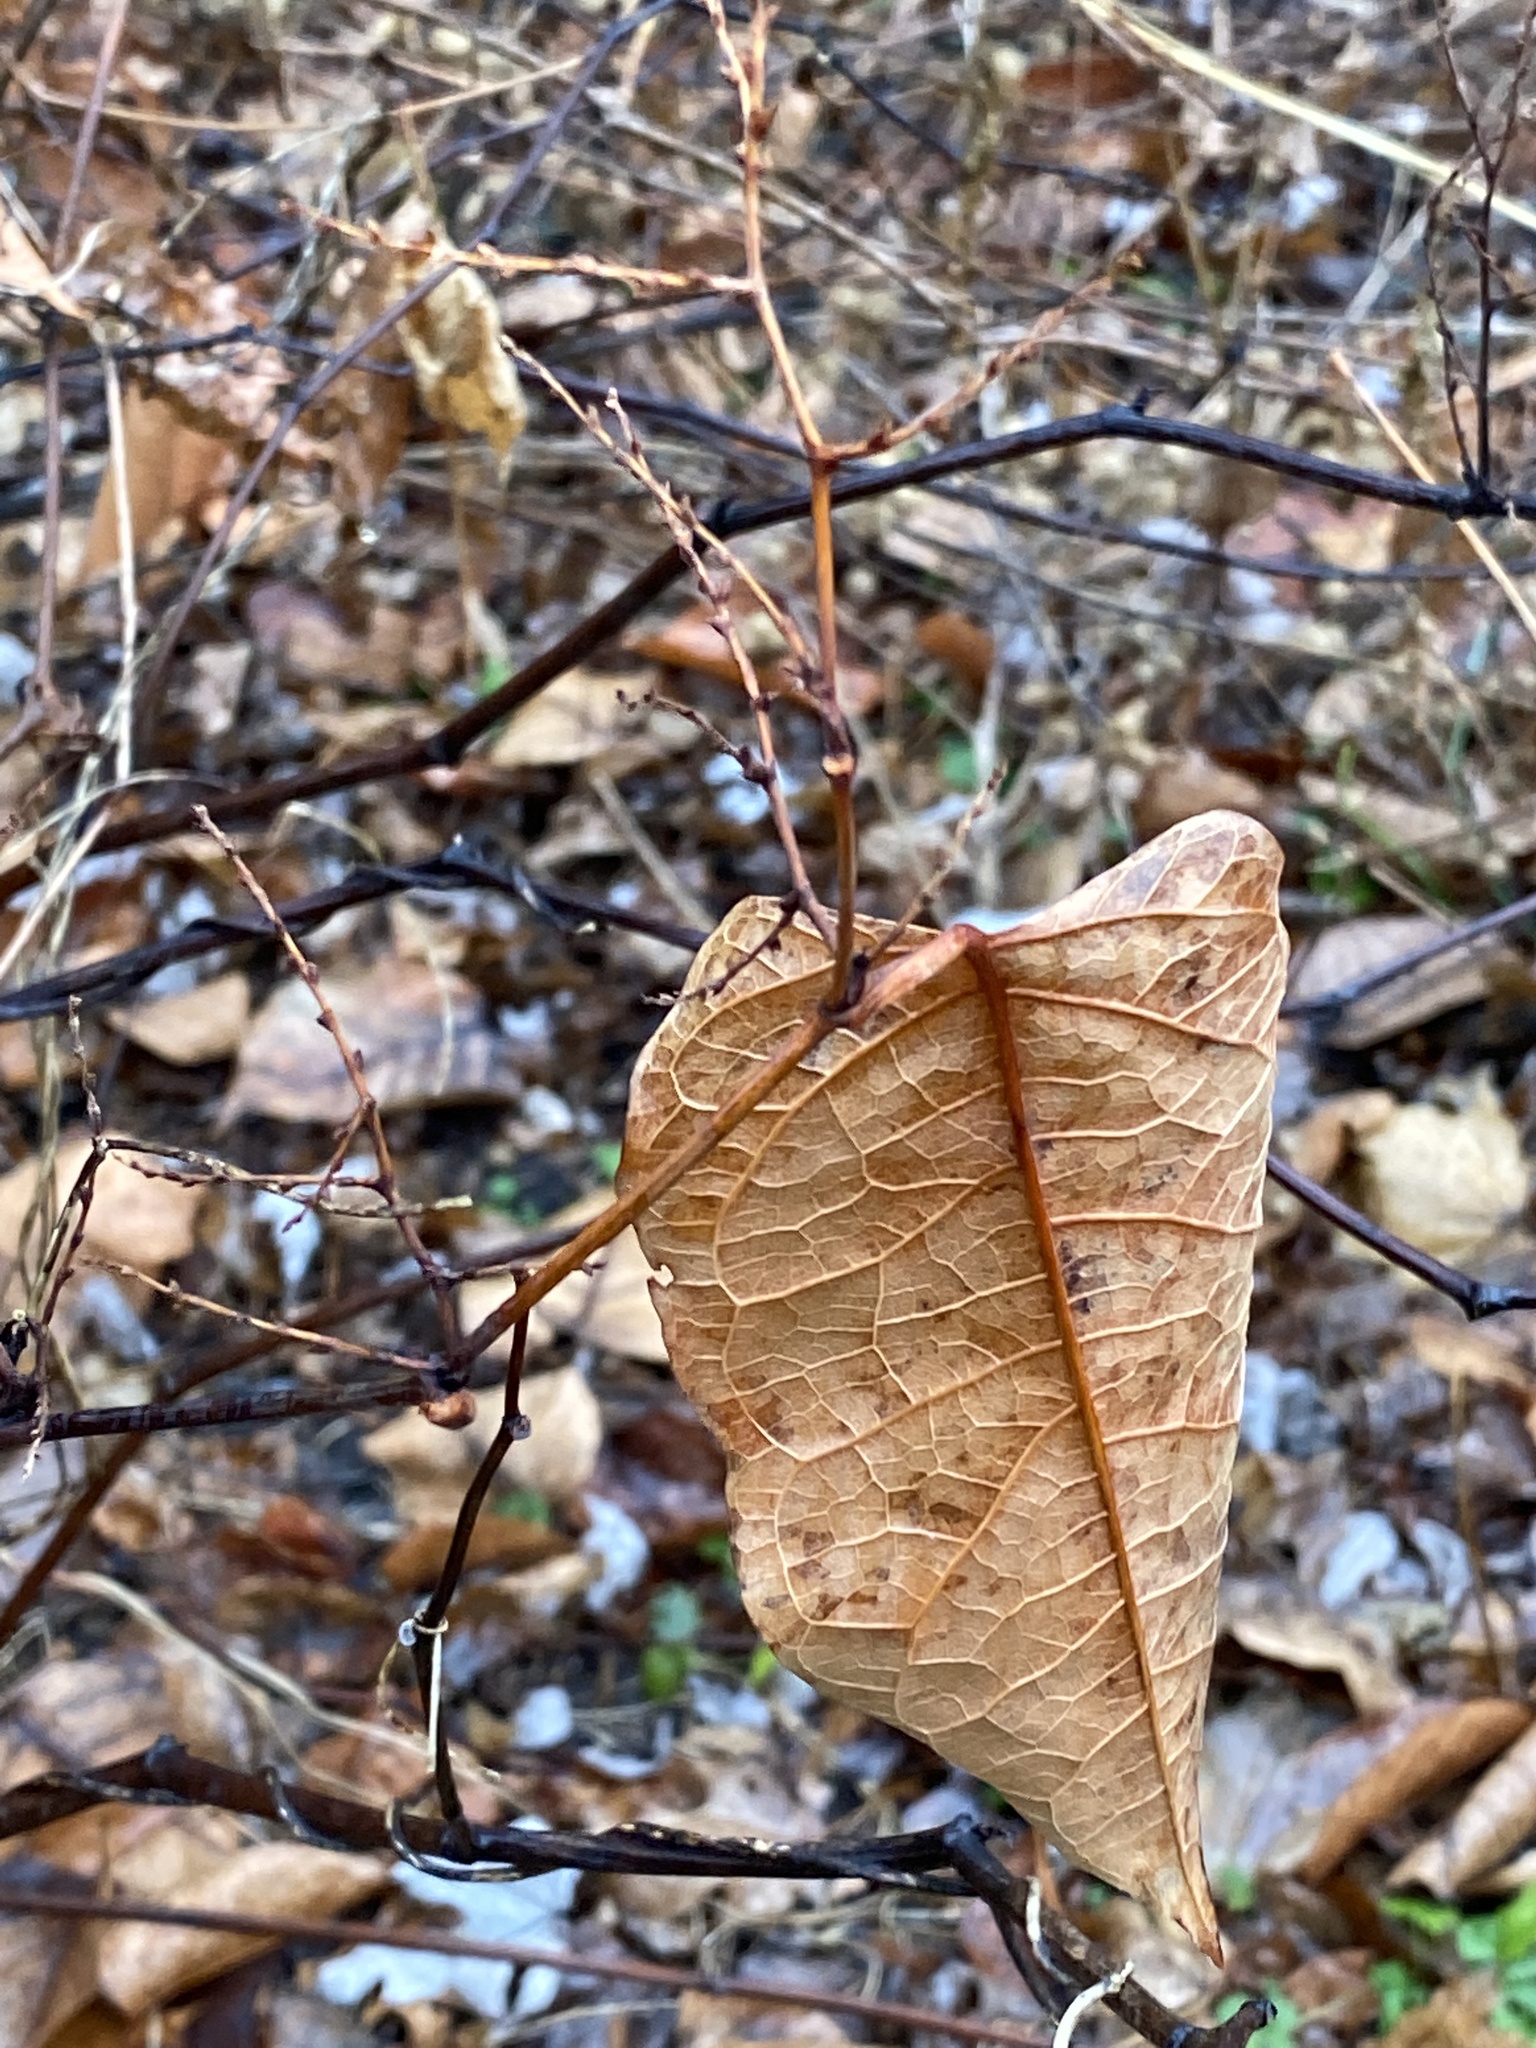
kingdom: Plantae
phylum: Tracheophyta
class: Magnoliopsida
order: Caryophyllales
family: Polygonaceae
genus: Reynoutria
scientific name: Reynoutria japonica
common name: Japanese knotweed
